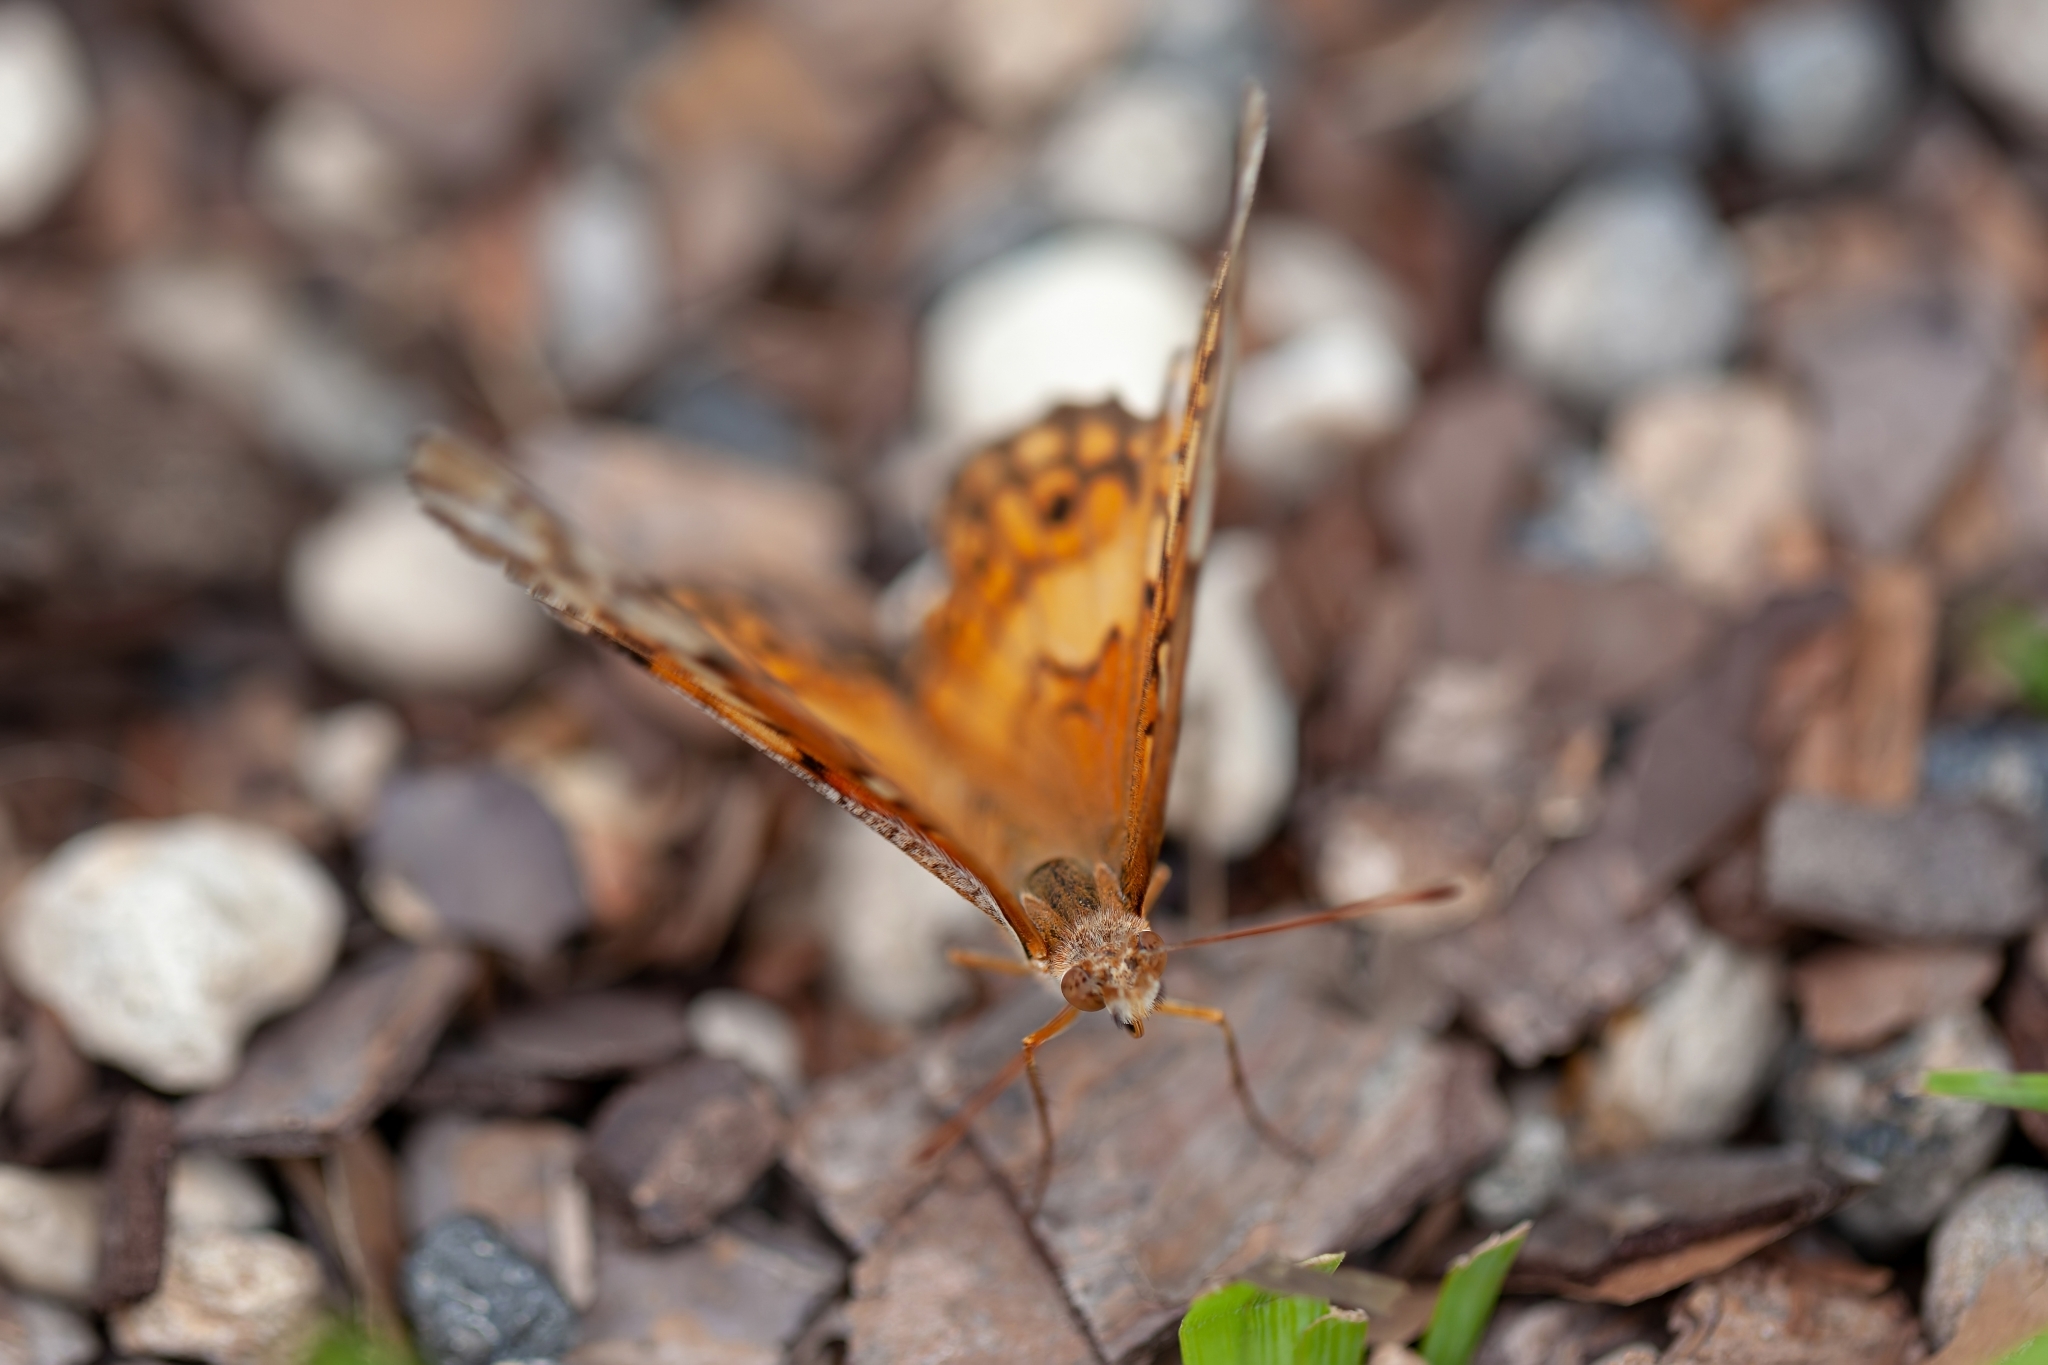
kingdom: Animalia
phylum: Arthropoda
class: Insecta
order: Lepidoptera
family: Nymphalidae
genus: Euptoieta
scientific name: Euptoieta claudia
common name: Variegated fritillary
